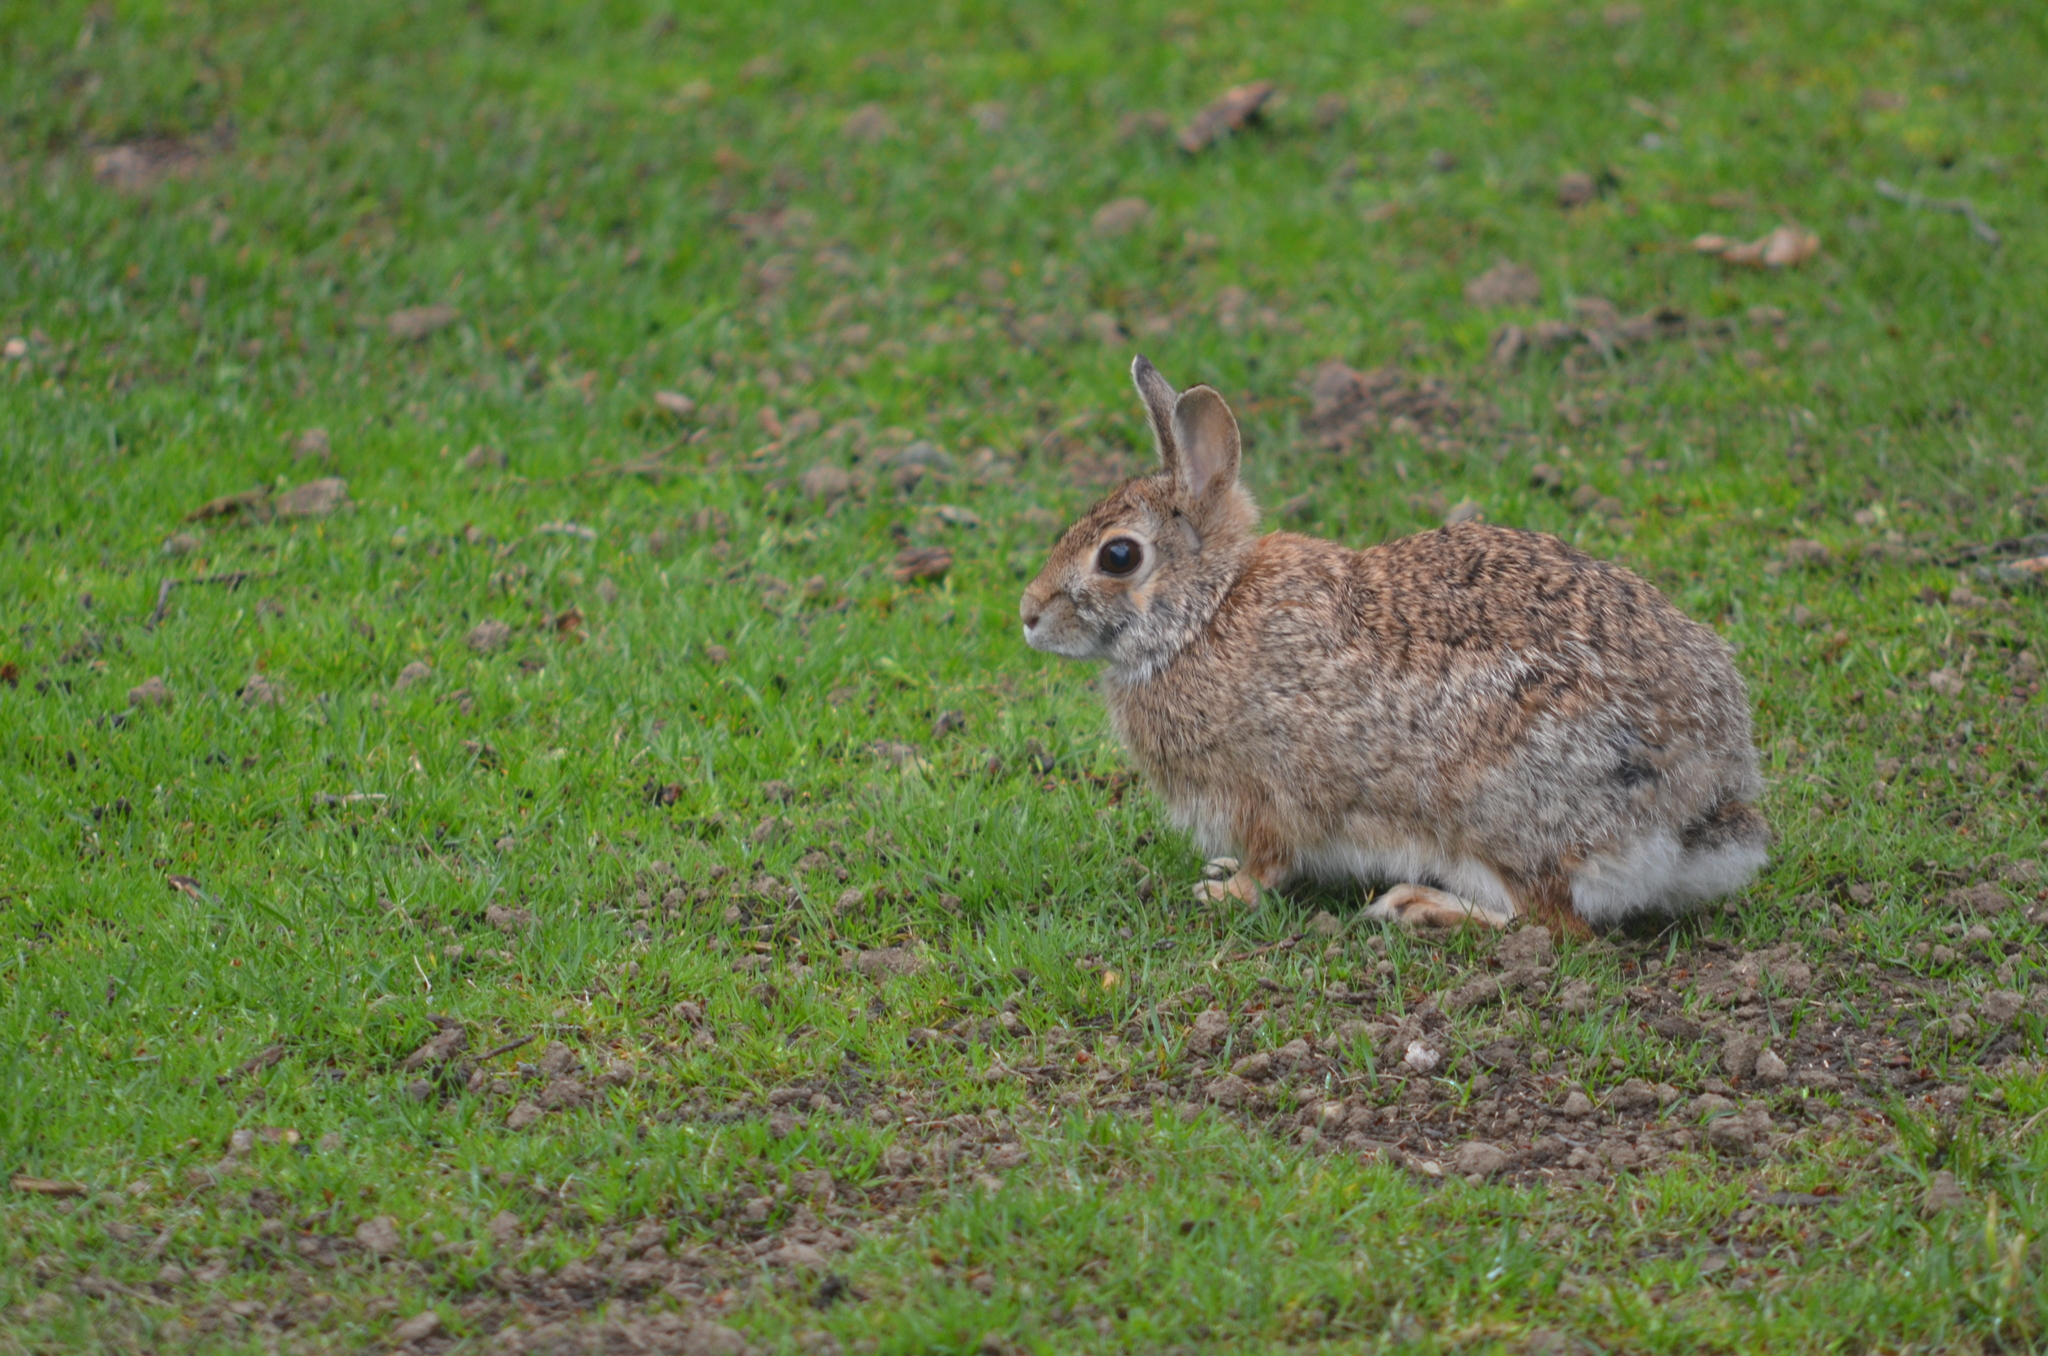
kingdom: Animalia
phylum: Chordata
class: Mammalia
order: Lagomorpha
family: Leporidae
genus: Sylvilagus
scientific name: Sylvilagus floridanus
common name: Eastern cottontail
